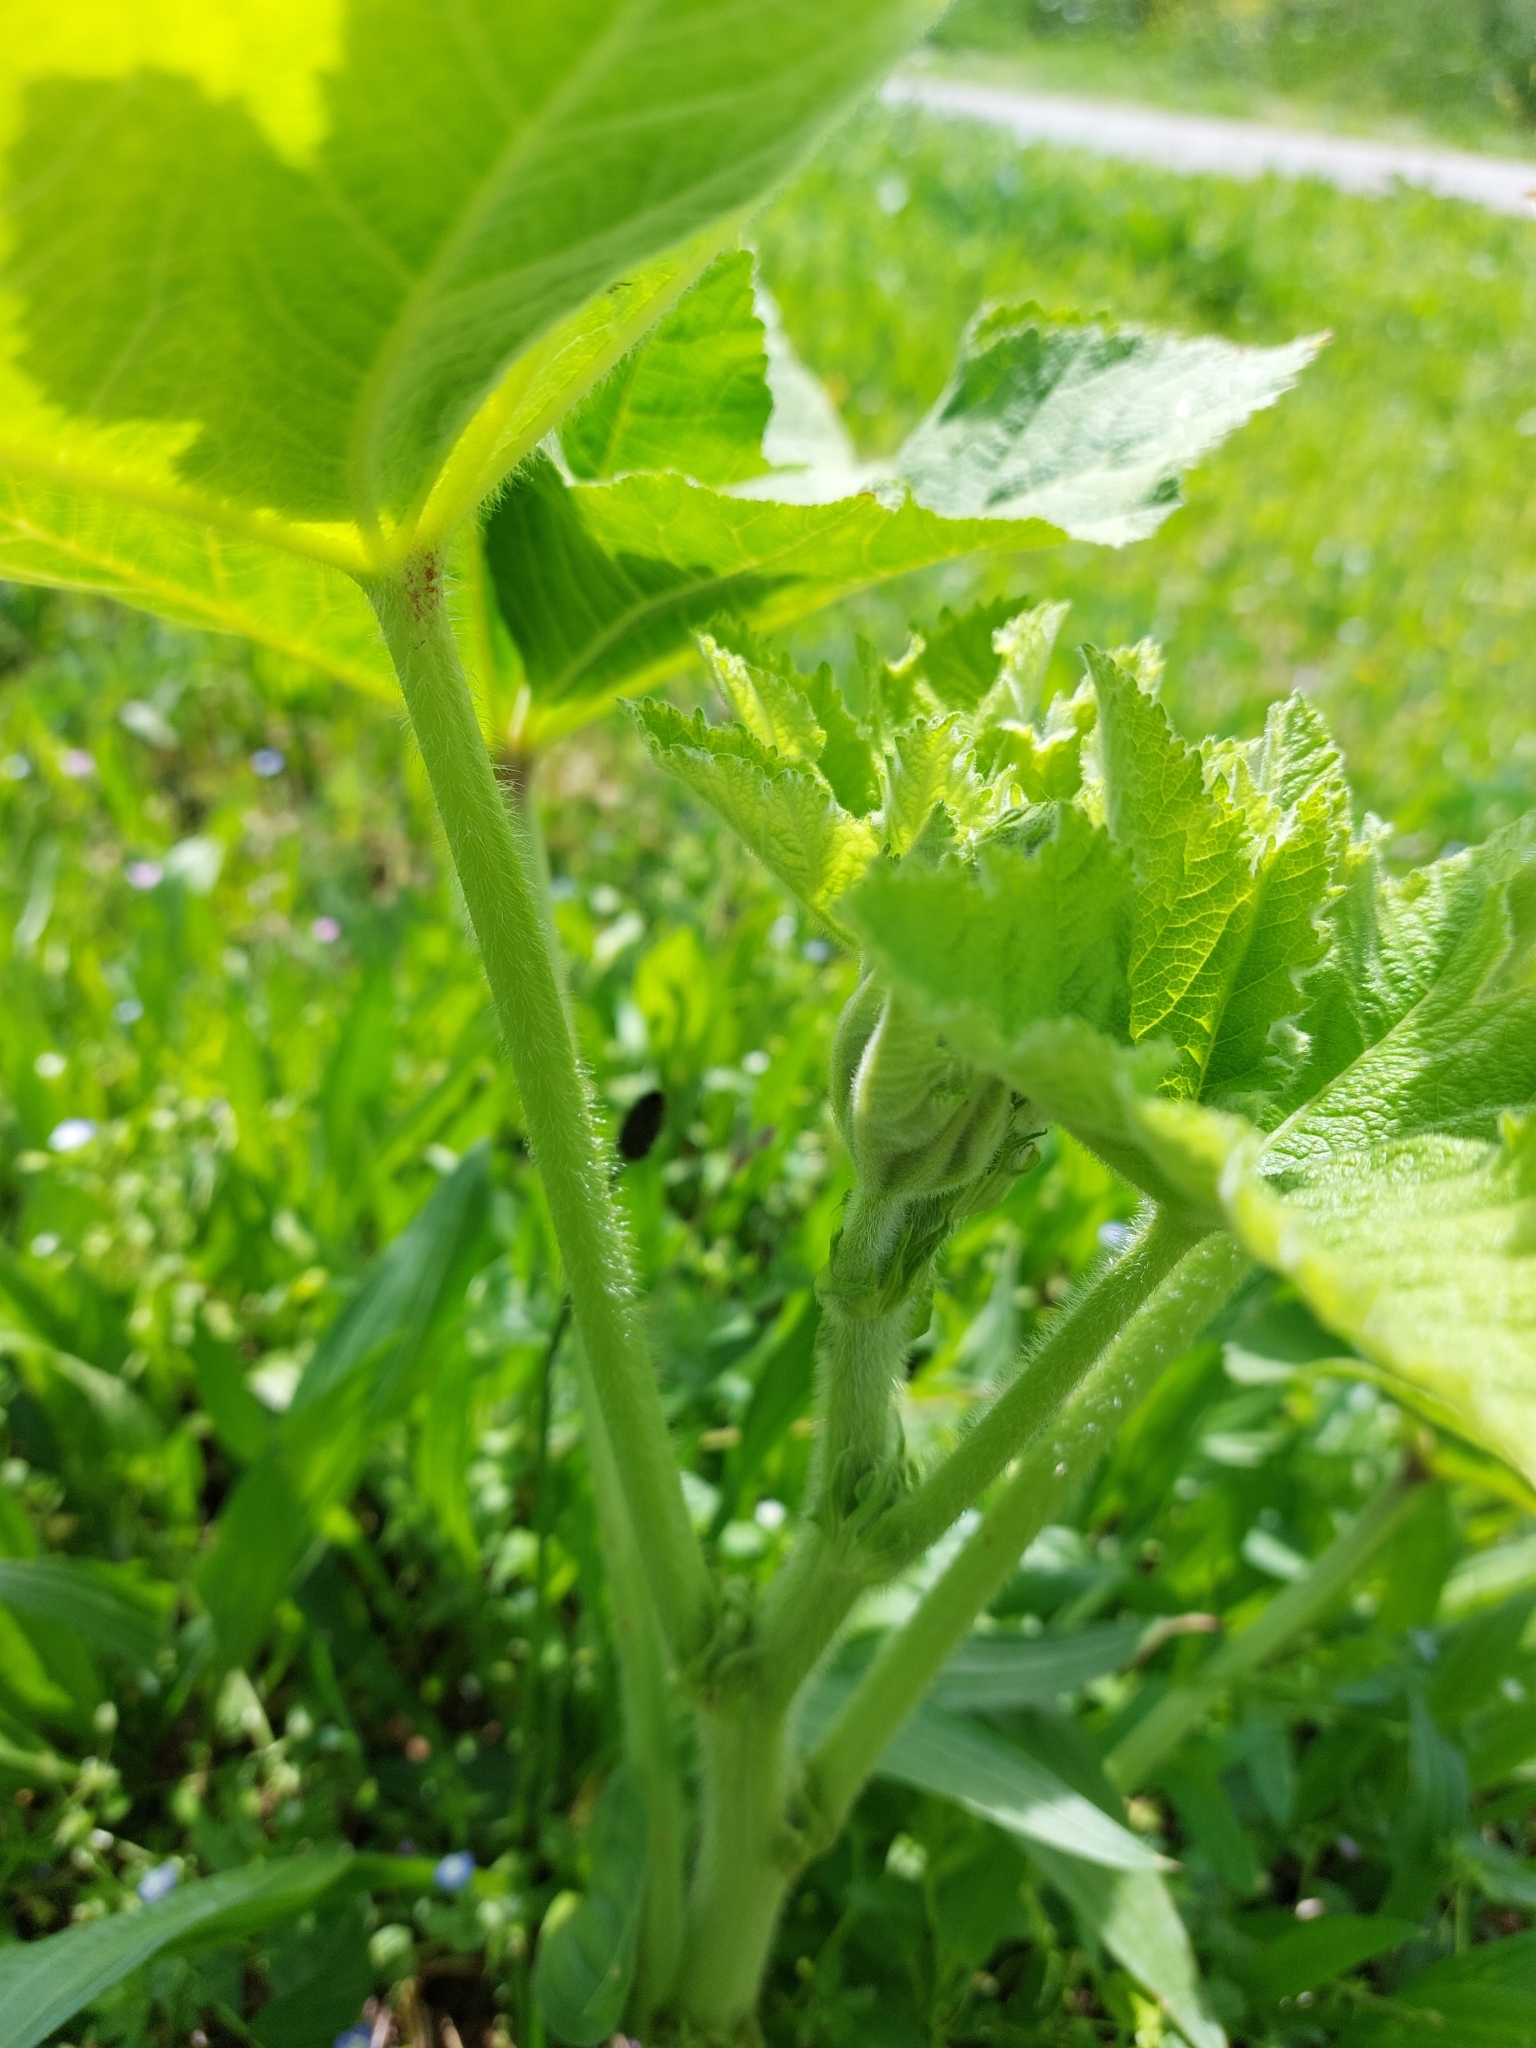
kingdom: Plantae
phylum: Tracheophyta
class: Magnoliopsida
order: Malvales
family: Malvaceae
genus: Alcea
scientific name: Alcea rosea
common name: Hollyhock
